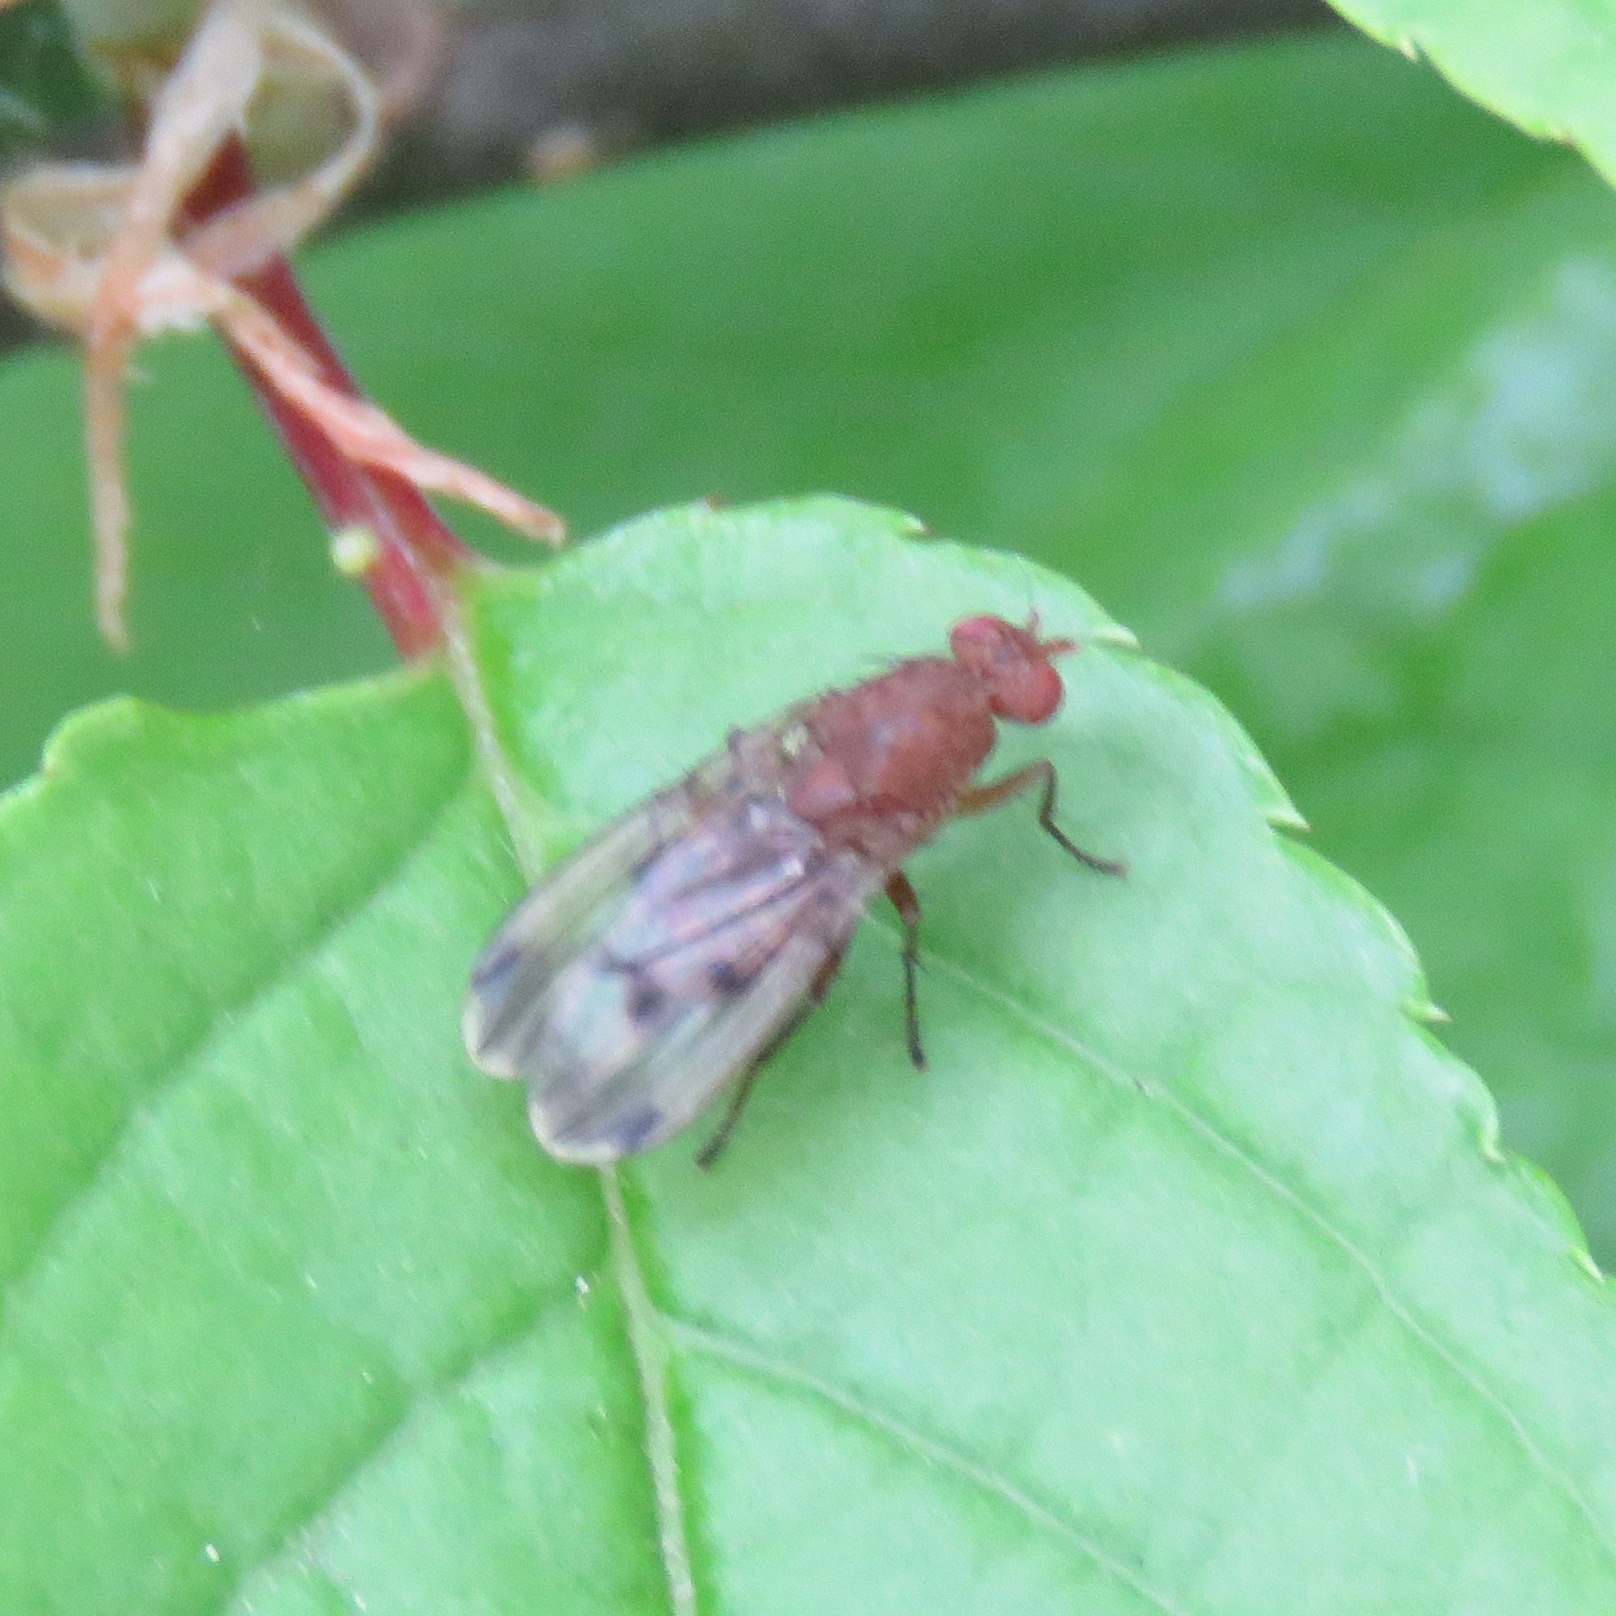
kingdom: Animalia
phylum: Arthropoda
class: Insecta
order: Diptera
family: Heleomyzidae
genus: Suillia
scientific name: Suillia variegata
